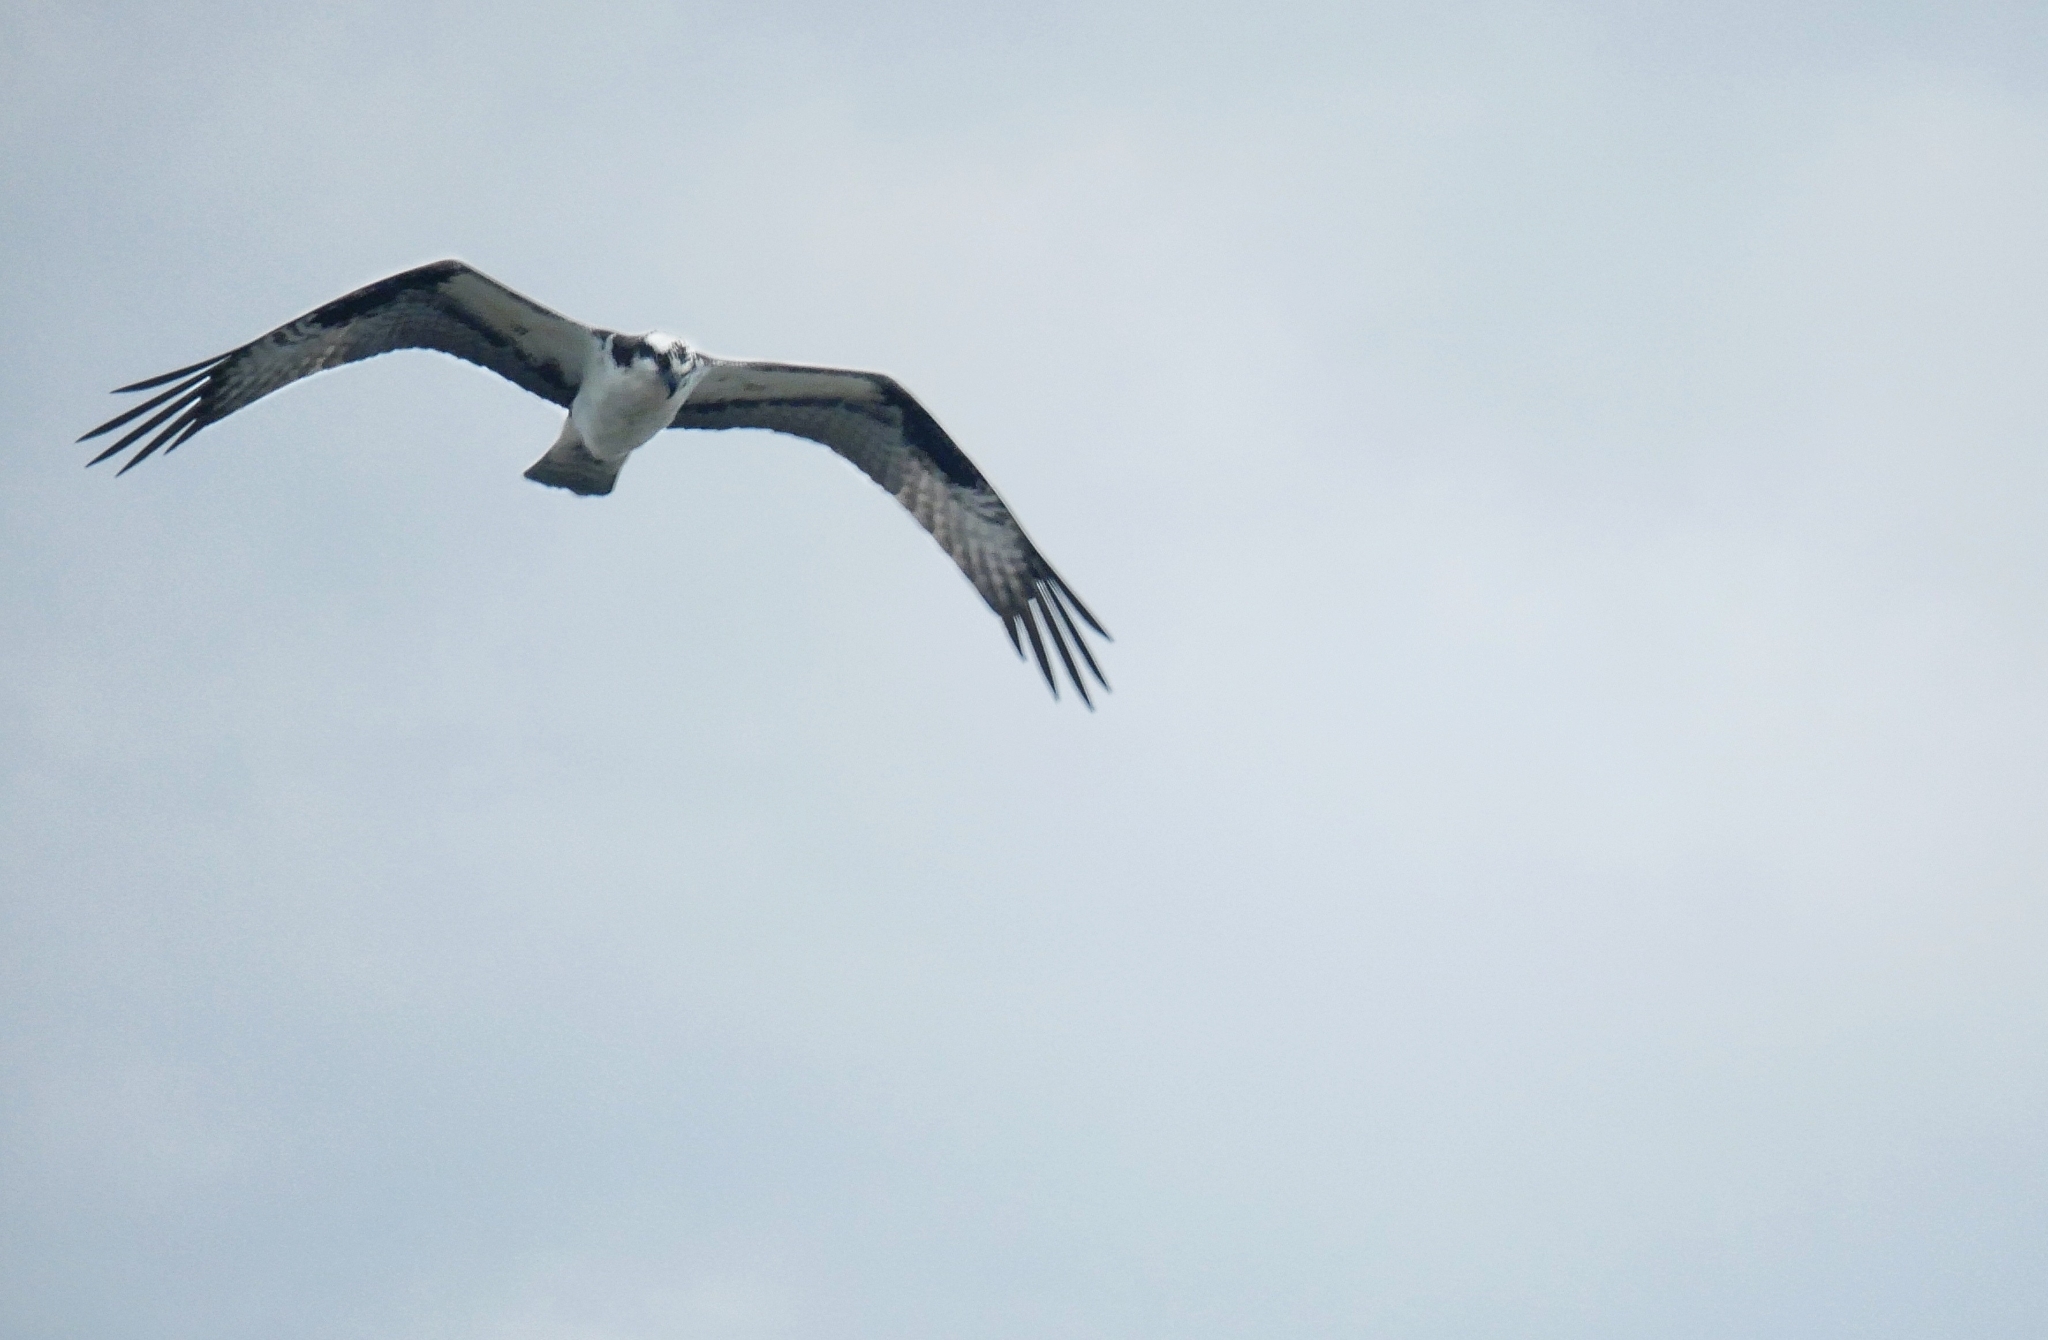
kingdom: Animalia
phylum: Chordata
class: Aves
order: Accipitriformes
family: Pandionidae
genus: Pandion
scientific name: Pandion haliaetus
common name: Osprey
